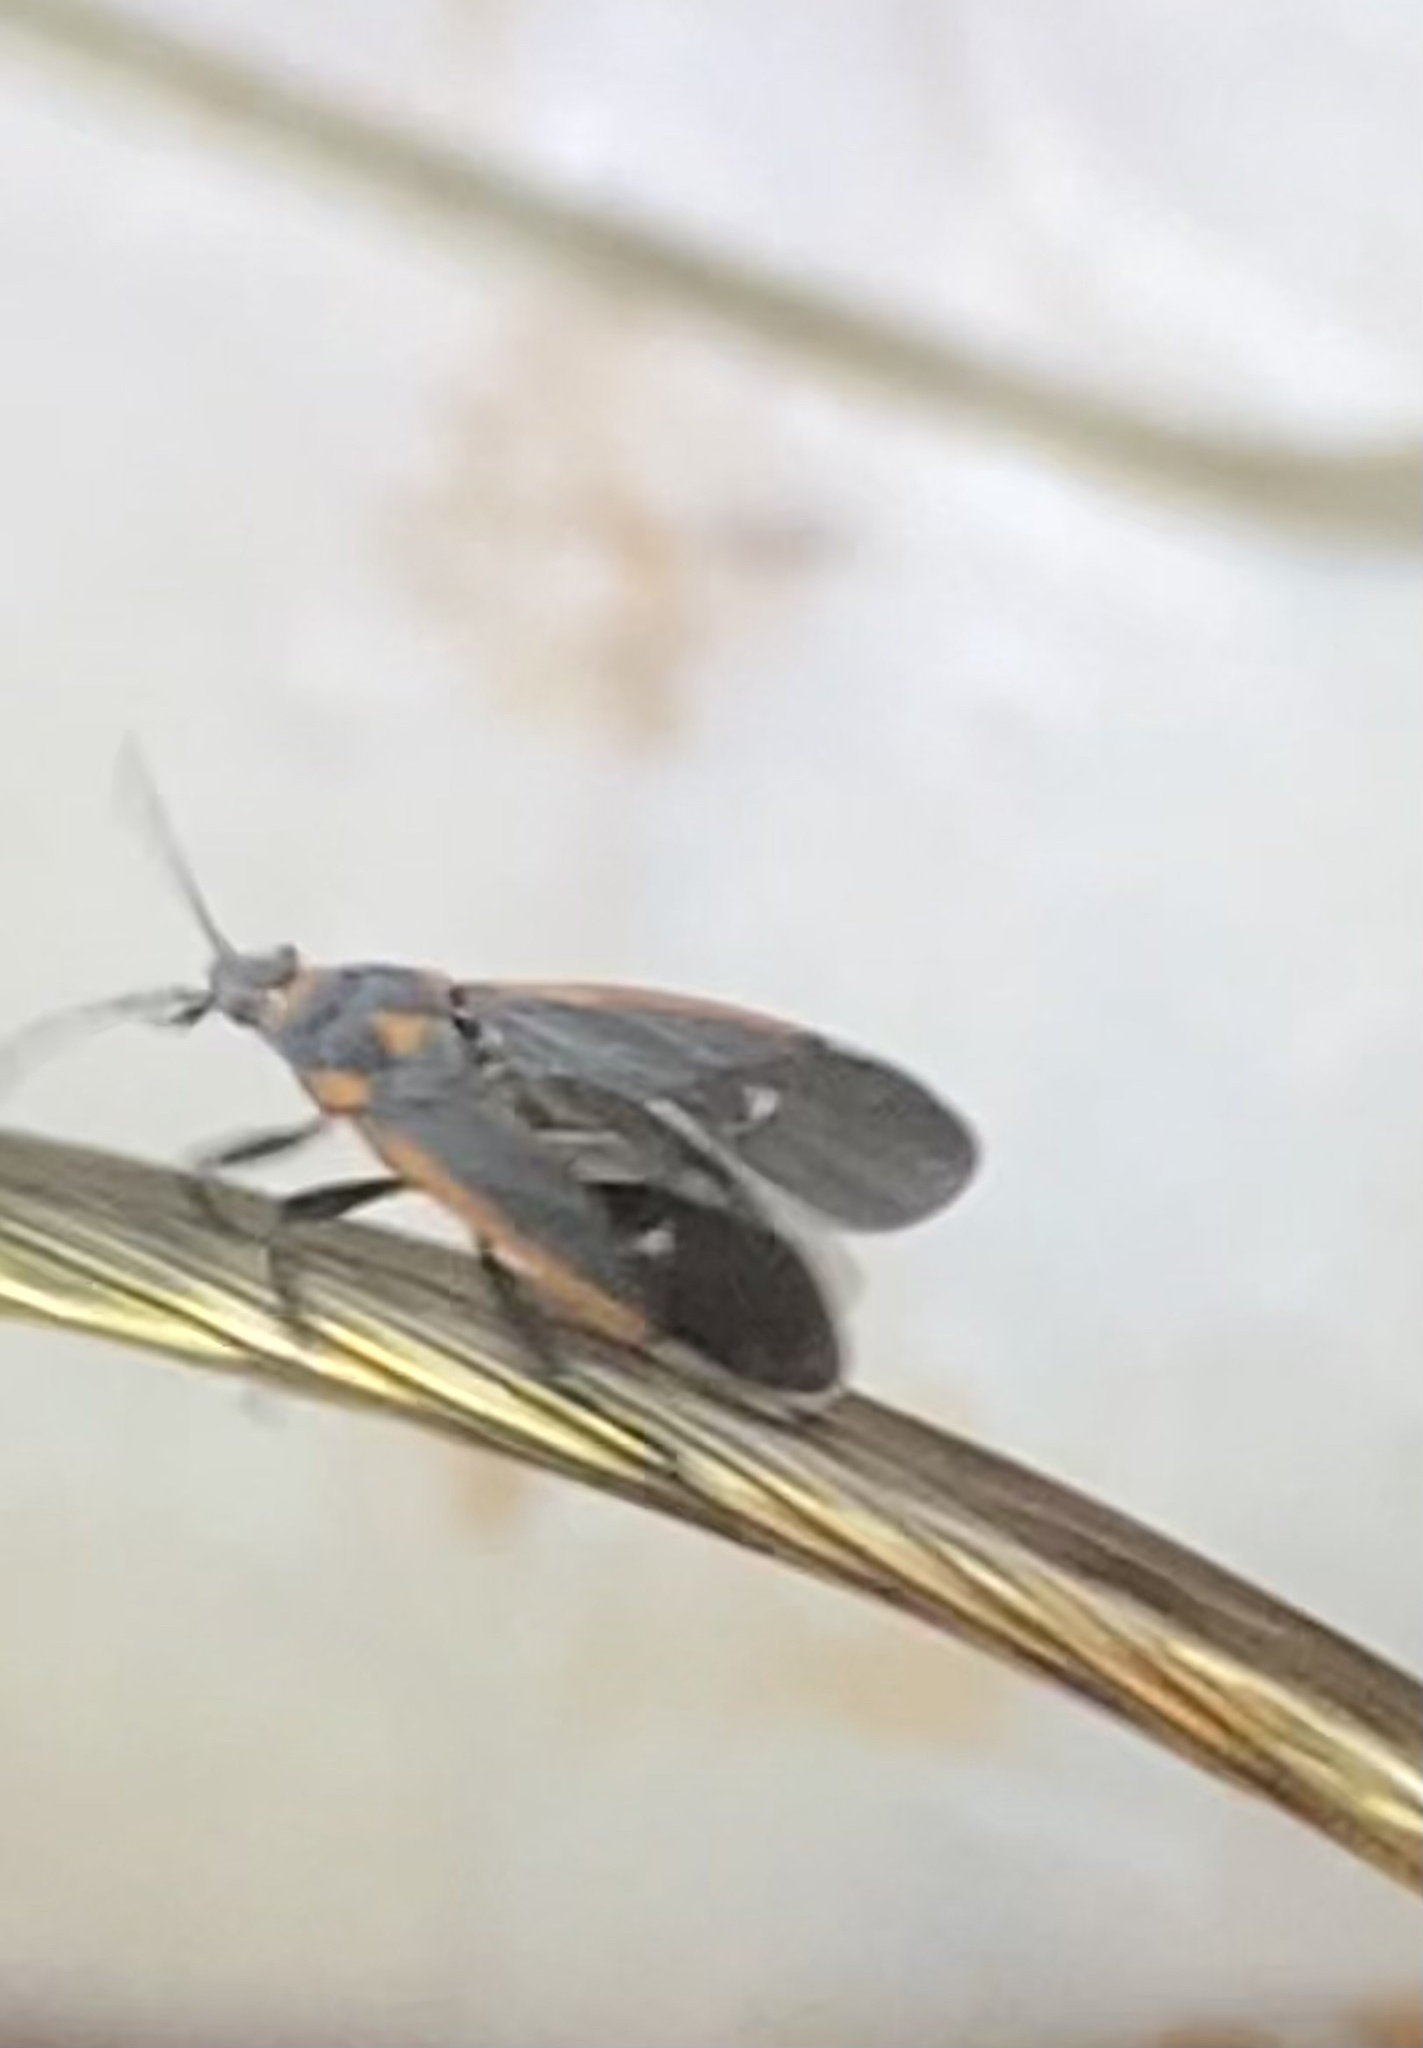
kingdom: Animalia
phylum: Arthropoda
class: Insecta
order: Hemiptera
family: Lygaeidae
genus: Melacoryphus
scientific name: Melacoryphus lateralis
